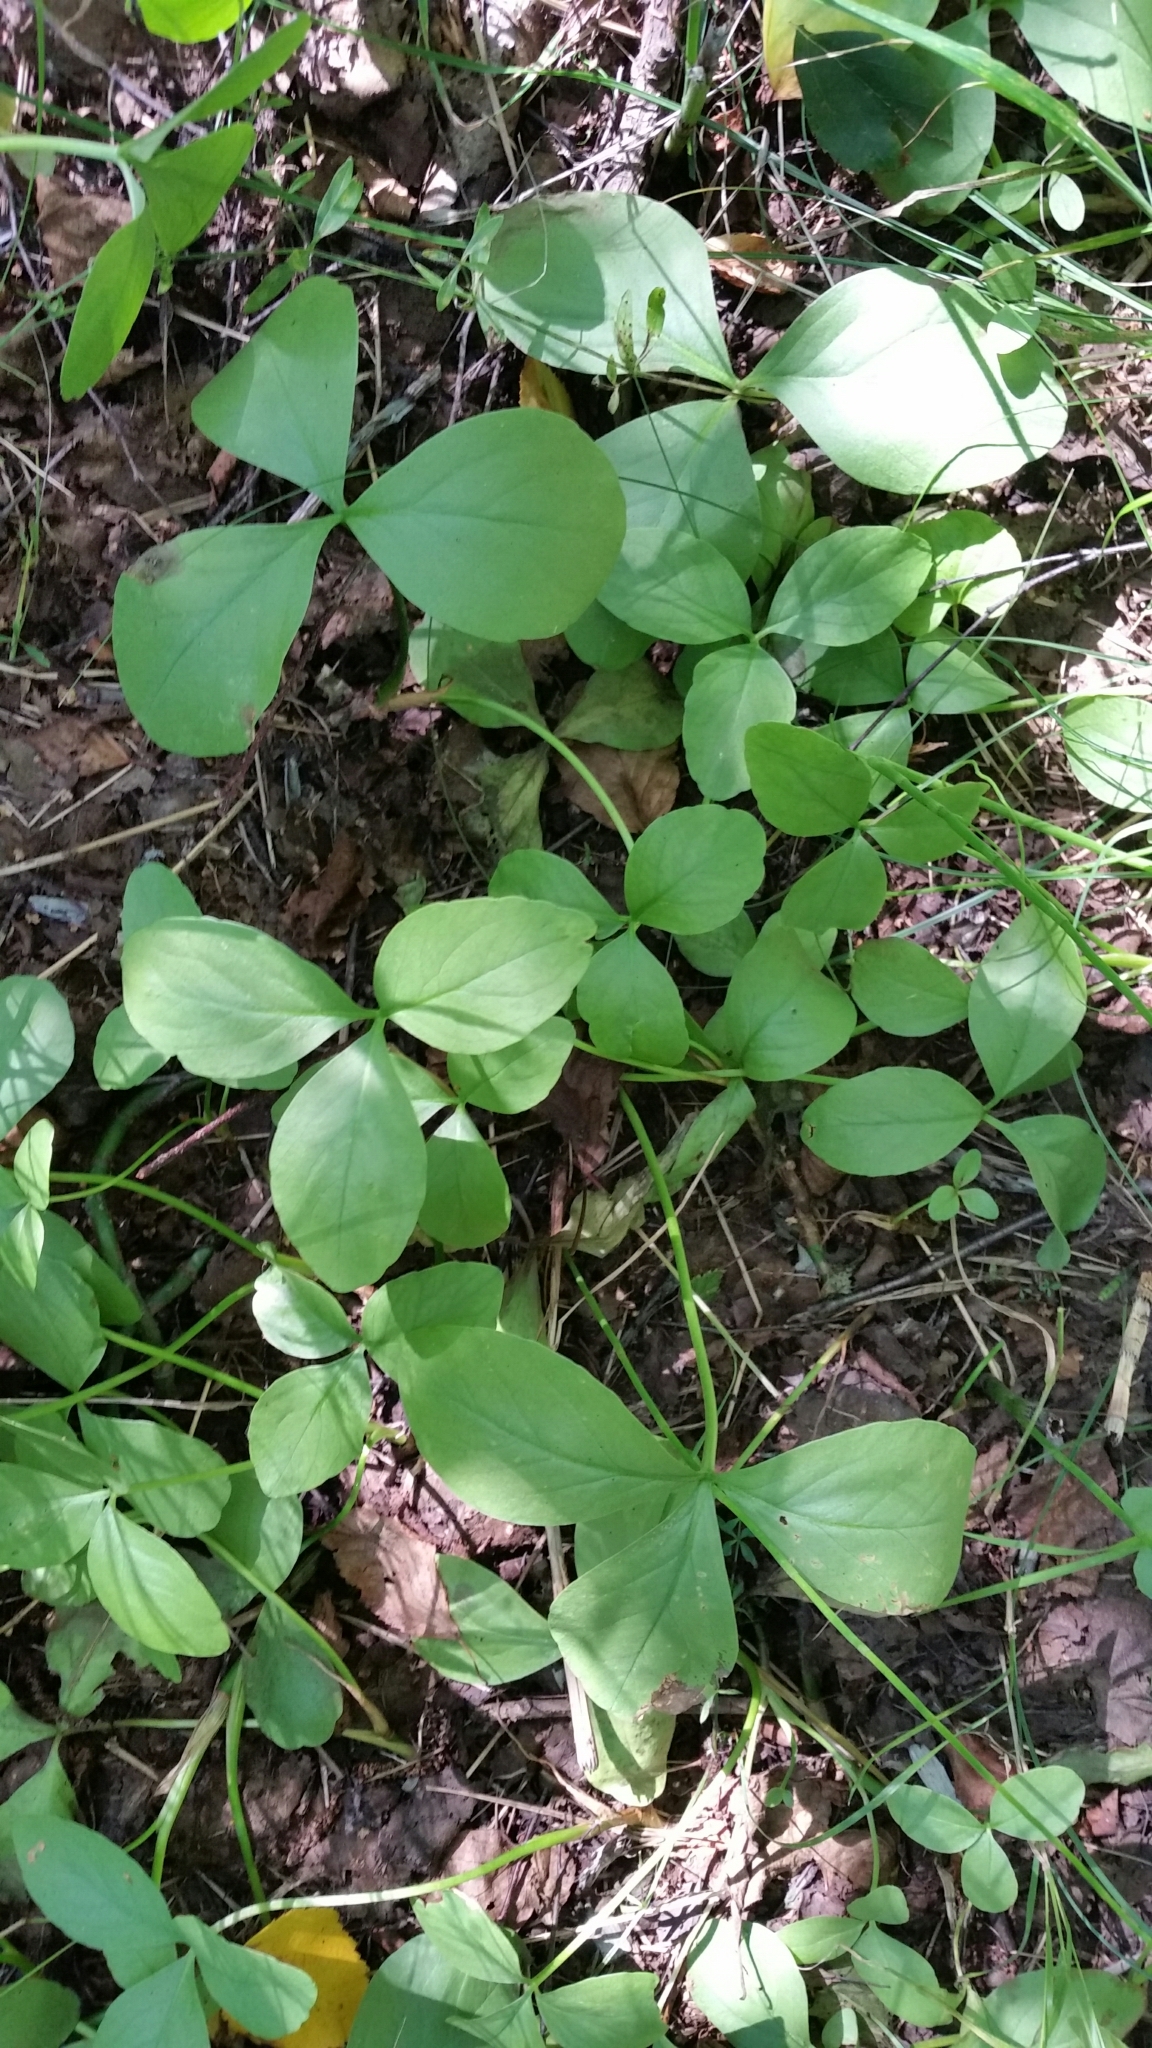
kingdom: Plantae
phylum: Tracheophyta
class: Magnoliopsida
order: Asterales
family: Menyanthaceae
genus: Menyanthes
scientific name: Menyanthes trifoliata
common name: Bogbean
